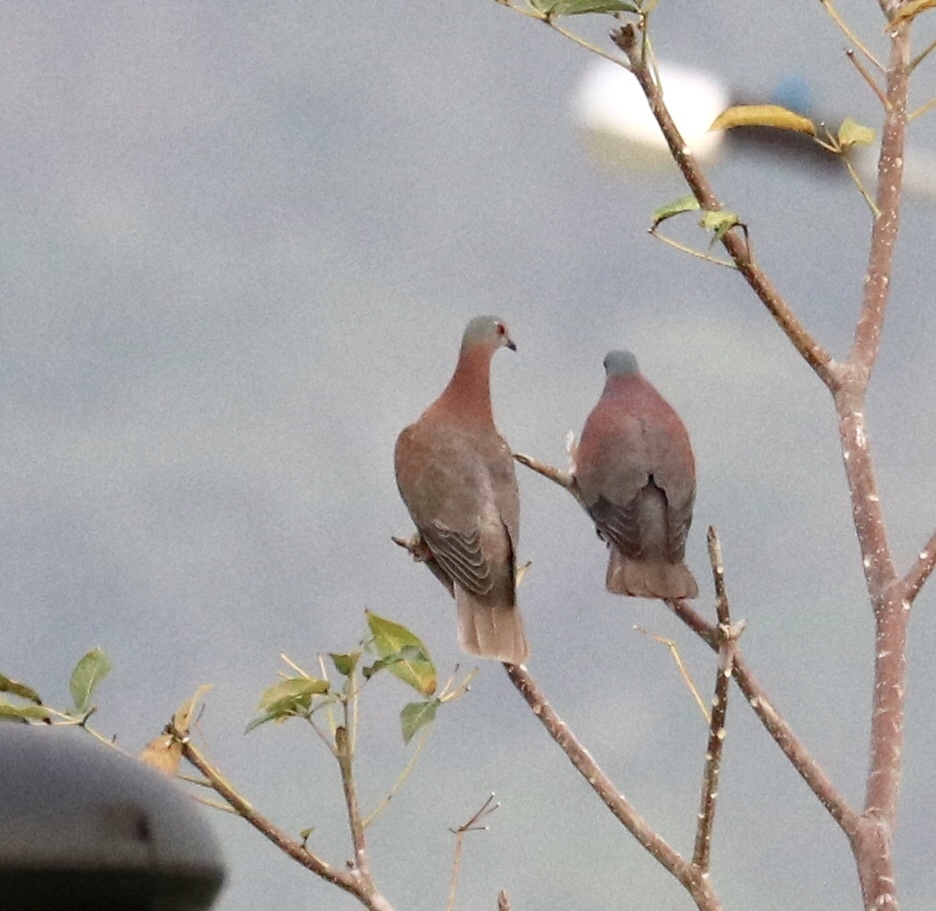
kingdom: Animalia
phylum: Chordata
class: Aves
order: Columbiformes
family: Columbidae
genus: Patagioenas
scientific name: Patagioenas cayennensis
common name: Pale-vented pigeon
